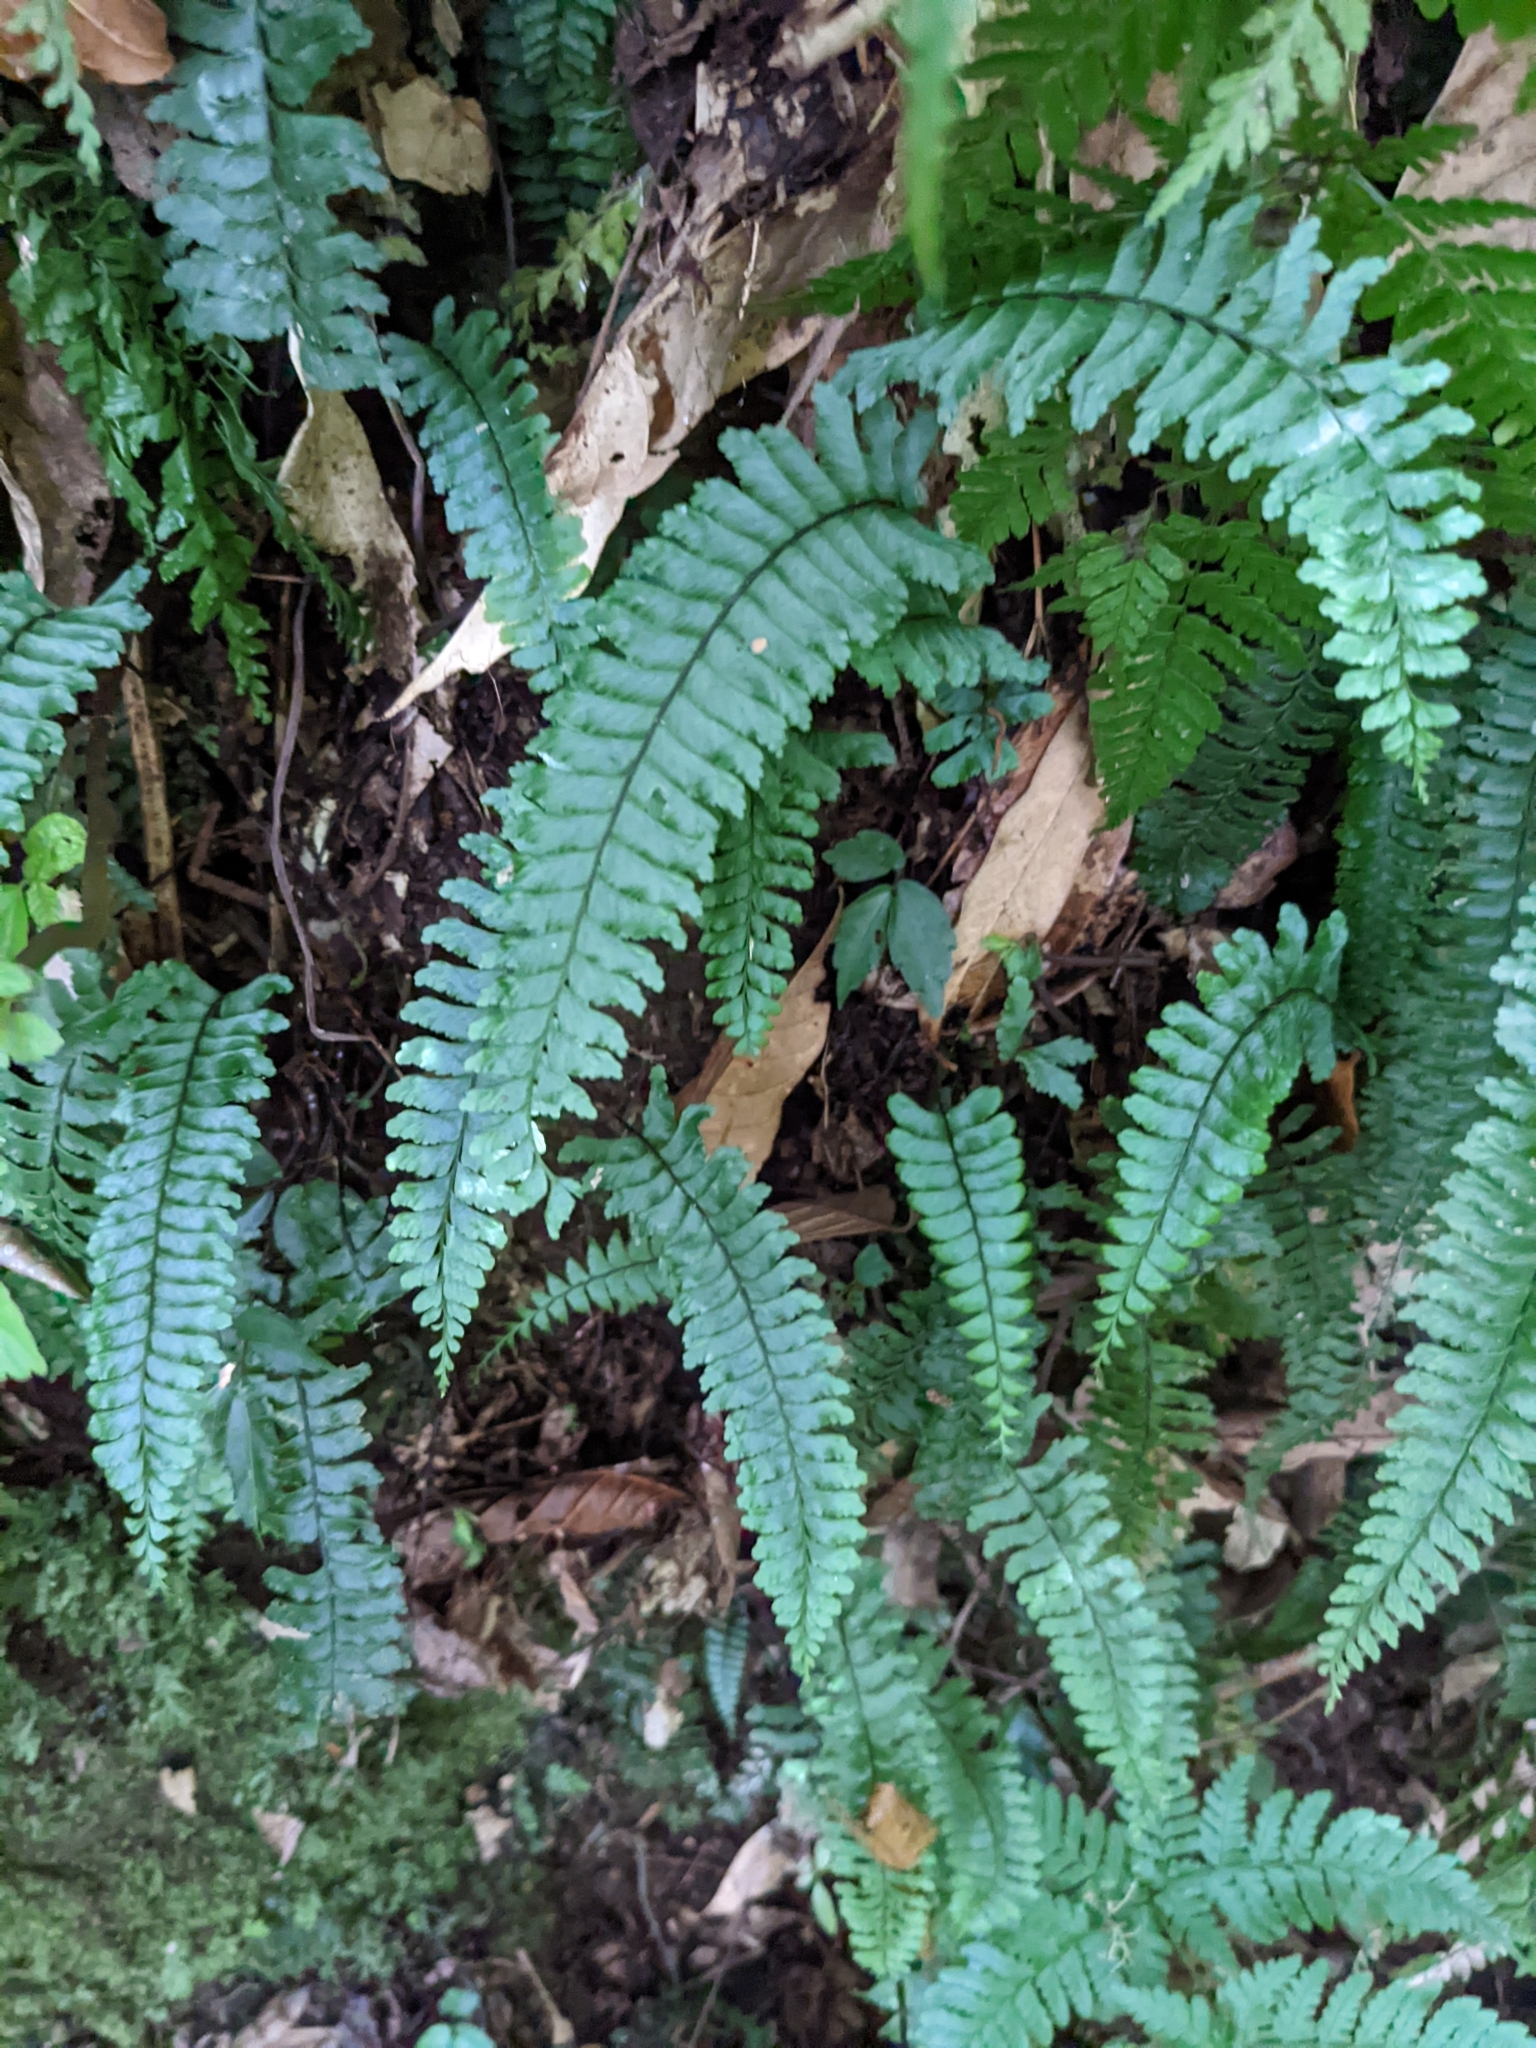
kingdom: Plantae
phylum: Tracheophyta
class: Polypodiopsida
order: Polypodiales
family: Aspleniaceae
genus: Hymenasplenium
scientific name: Hymenasplenium filipes
